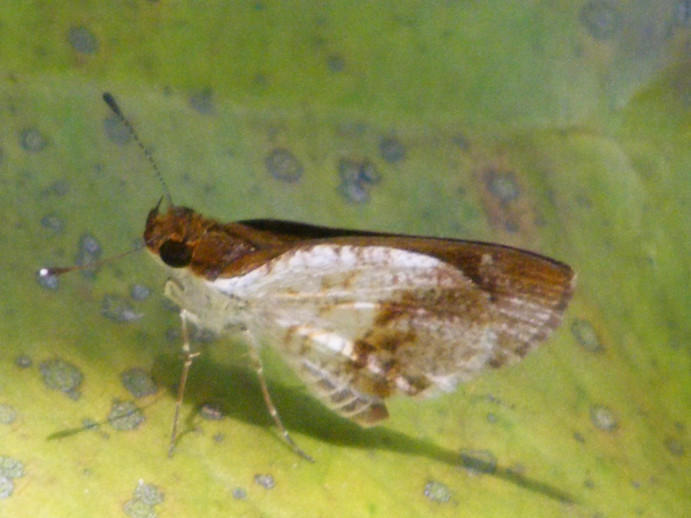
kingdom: Animalia
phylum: Arthropoda
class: Insecta
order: Lepidoptera
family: Hesperiidae
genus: Acleros
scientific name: Acleros mackenii
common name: Shade dart
